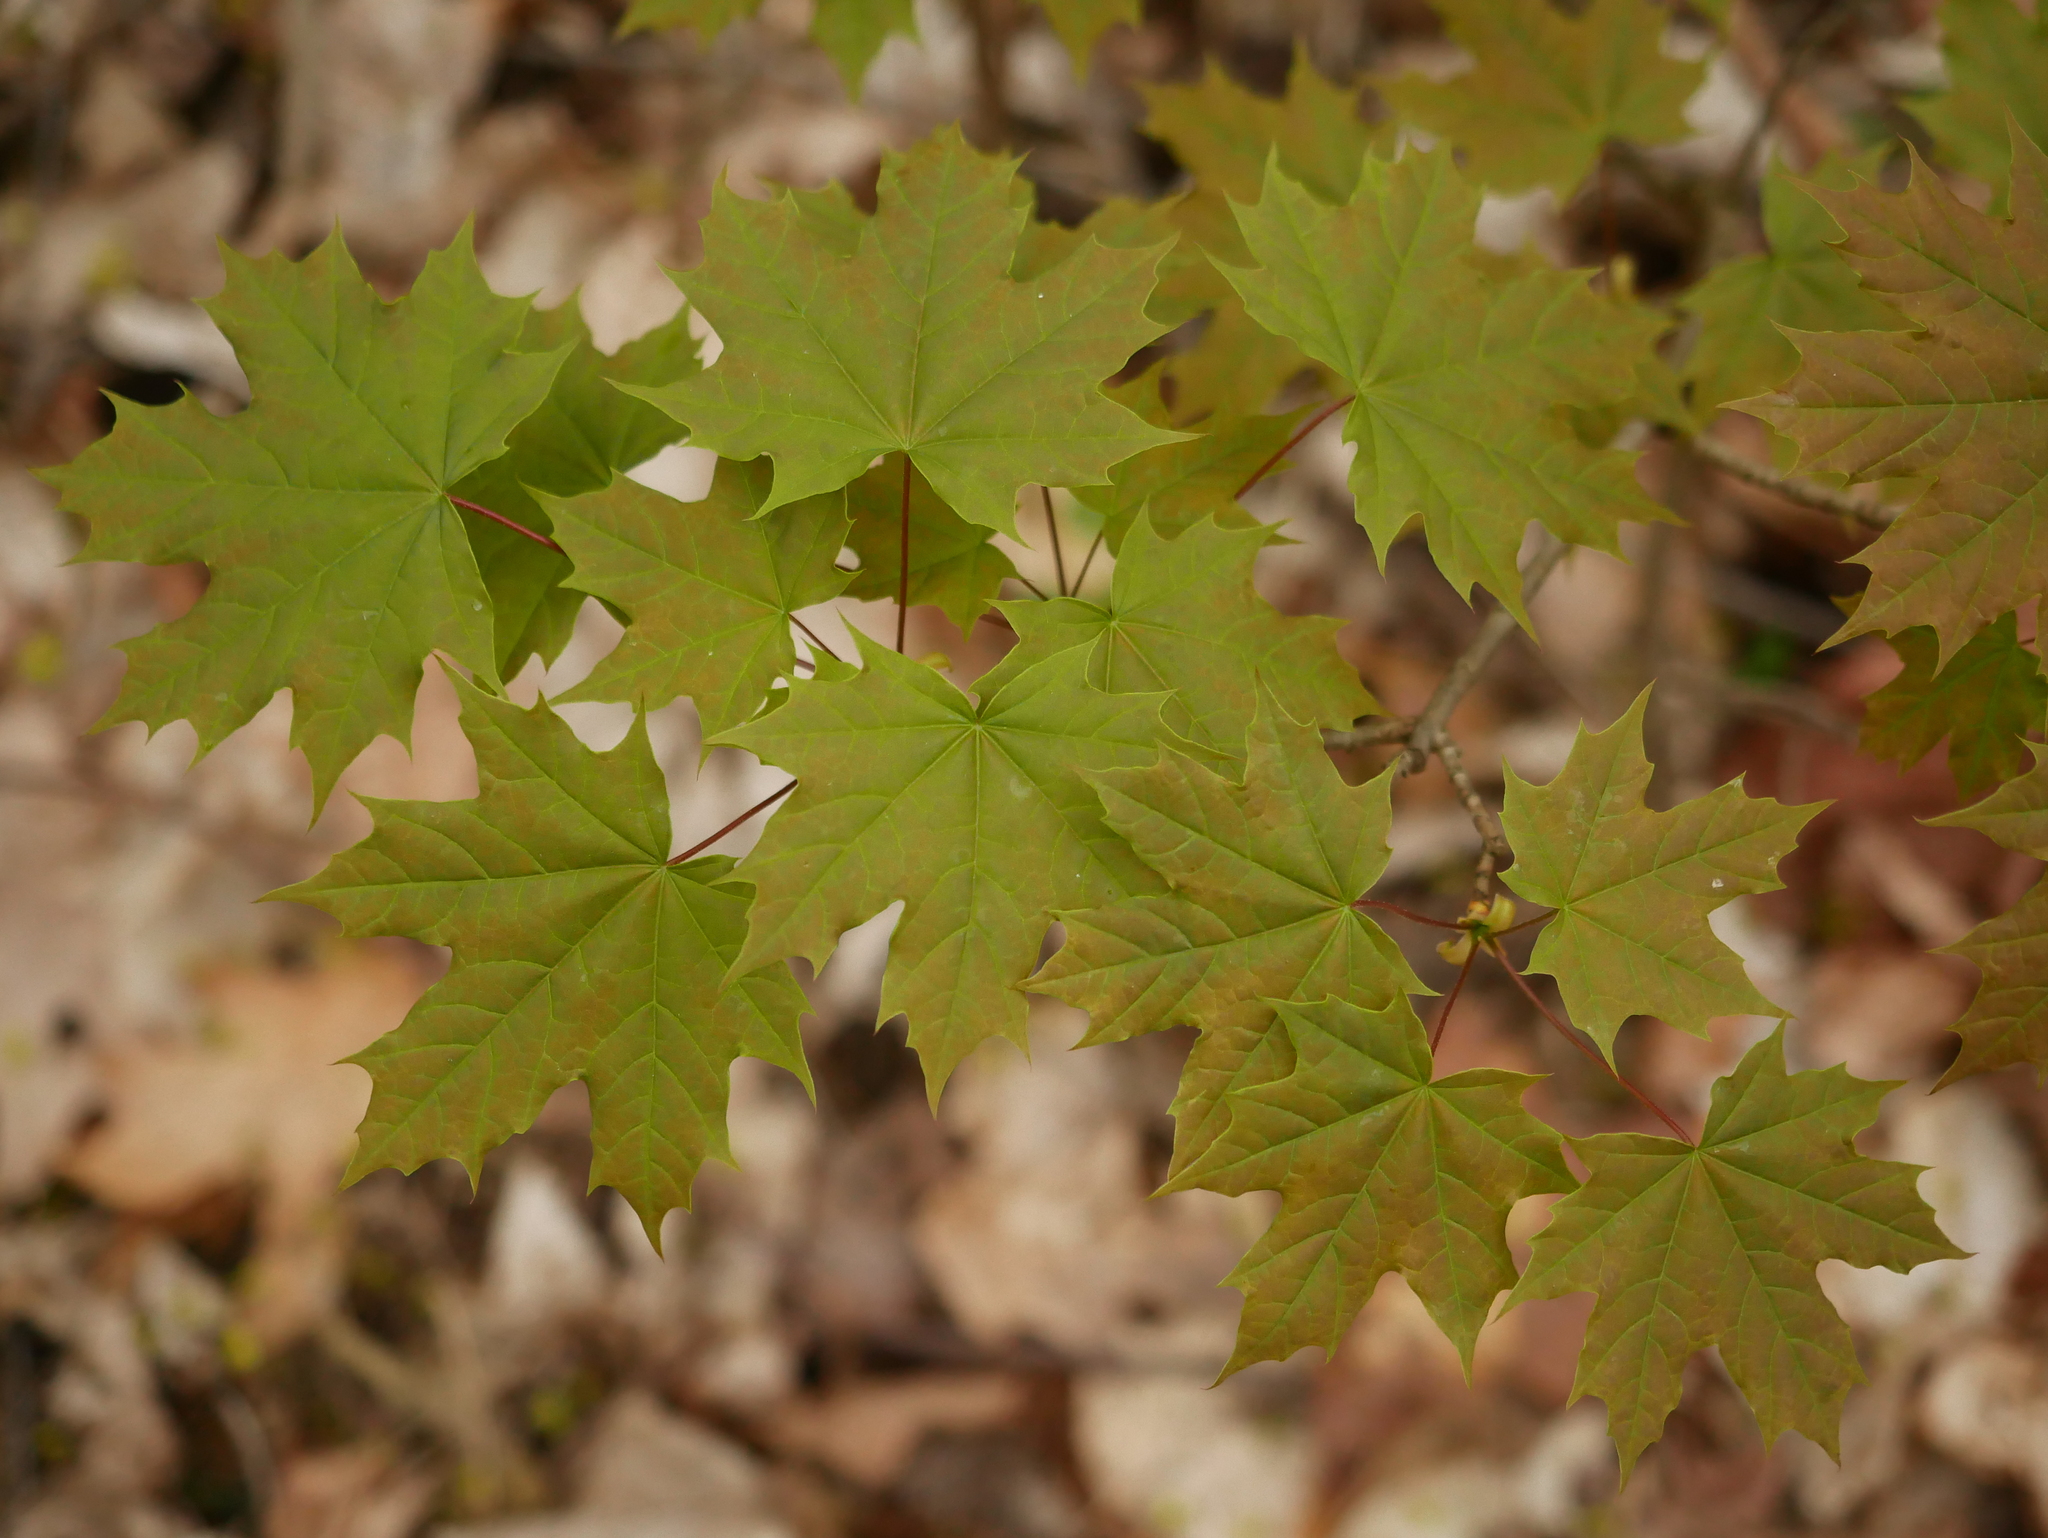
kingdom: Plantae
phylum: Tracheophyta
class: Magnoliopsida
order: Sapindales
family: Sapindaceae
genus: Acer
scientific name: Acer platanoides
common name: Norway maple
